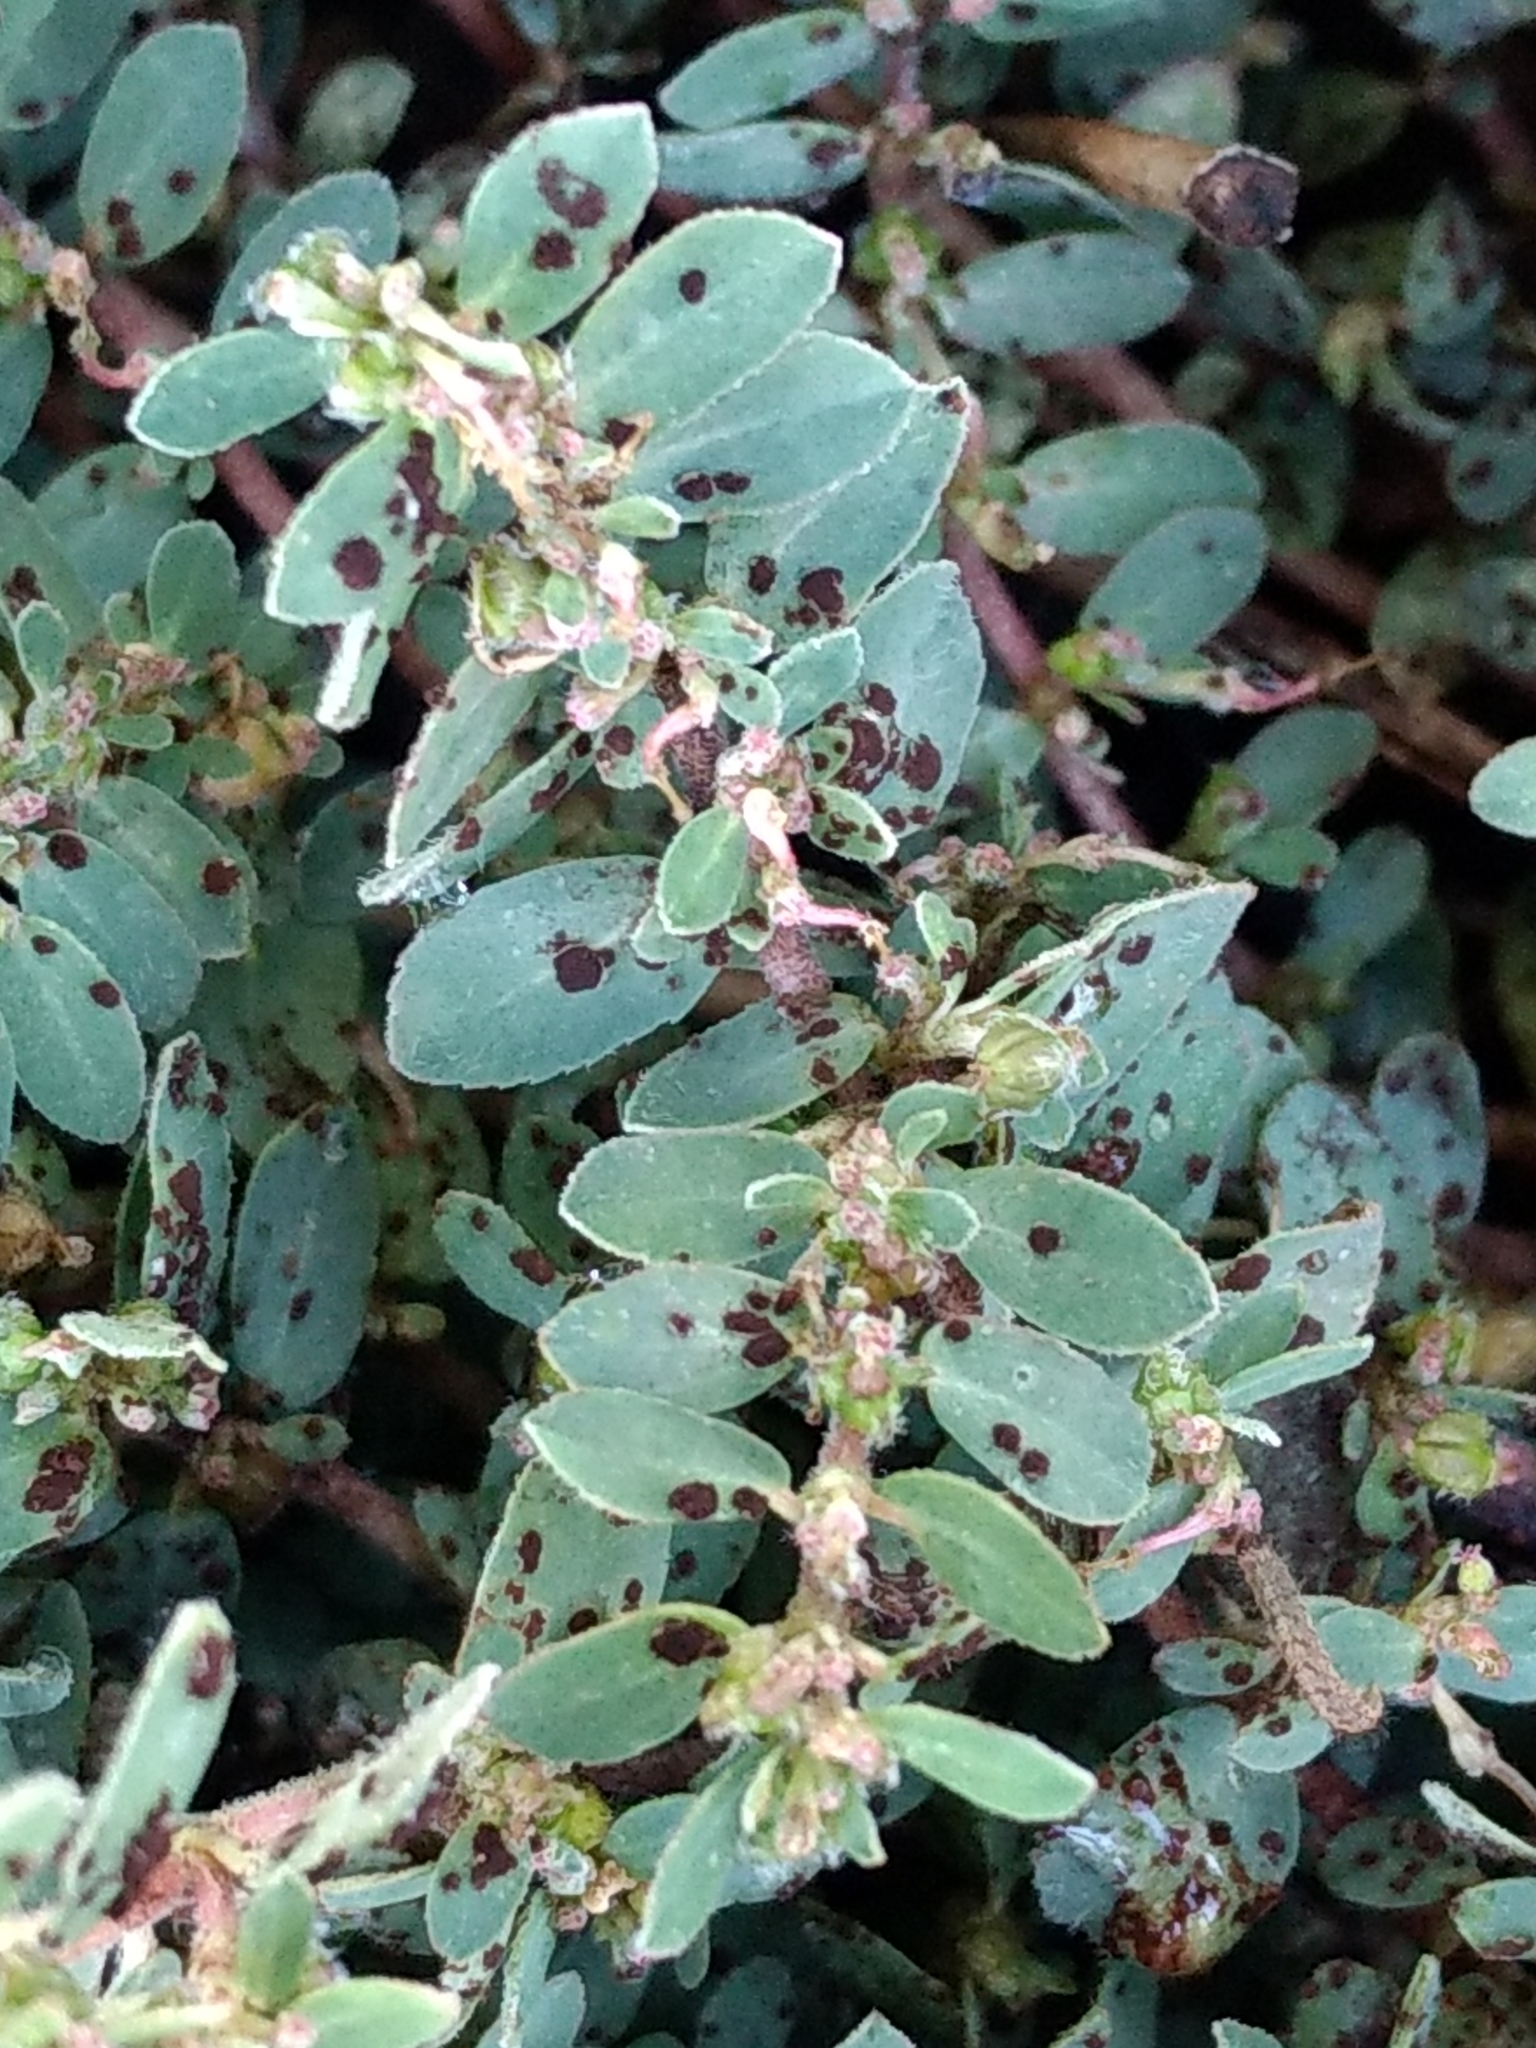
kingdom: Plantae
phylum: Tracheophyta
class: Magnoliopsida
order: Malpighiales
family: Euphorbiaceae
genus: Euphorbia
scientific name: Euphorbia prostrata
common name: Prostrate sandmat
